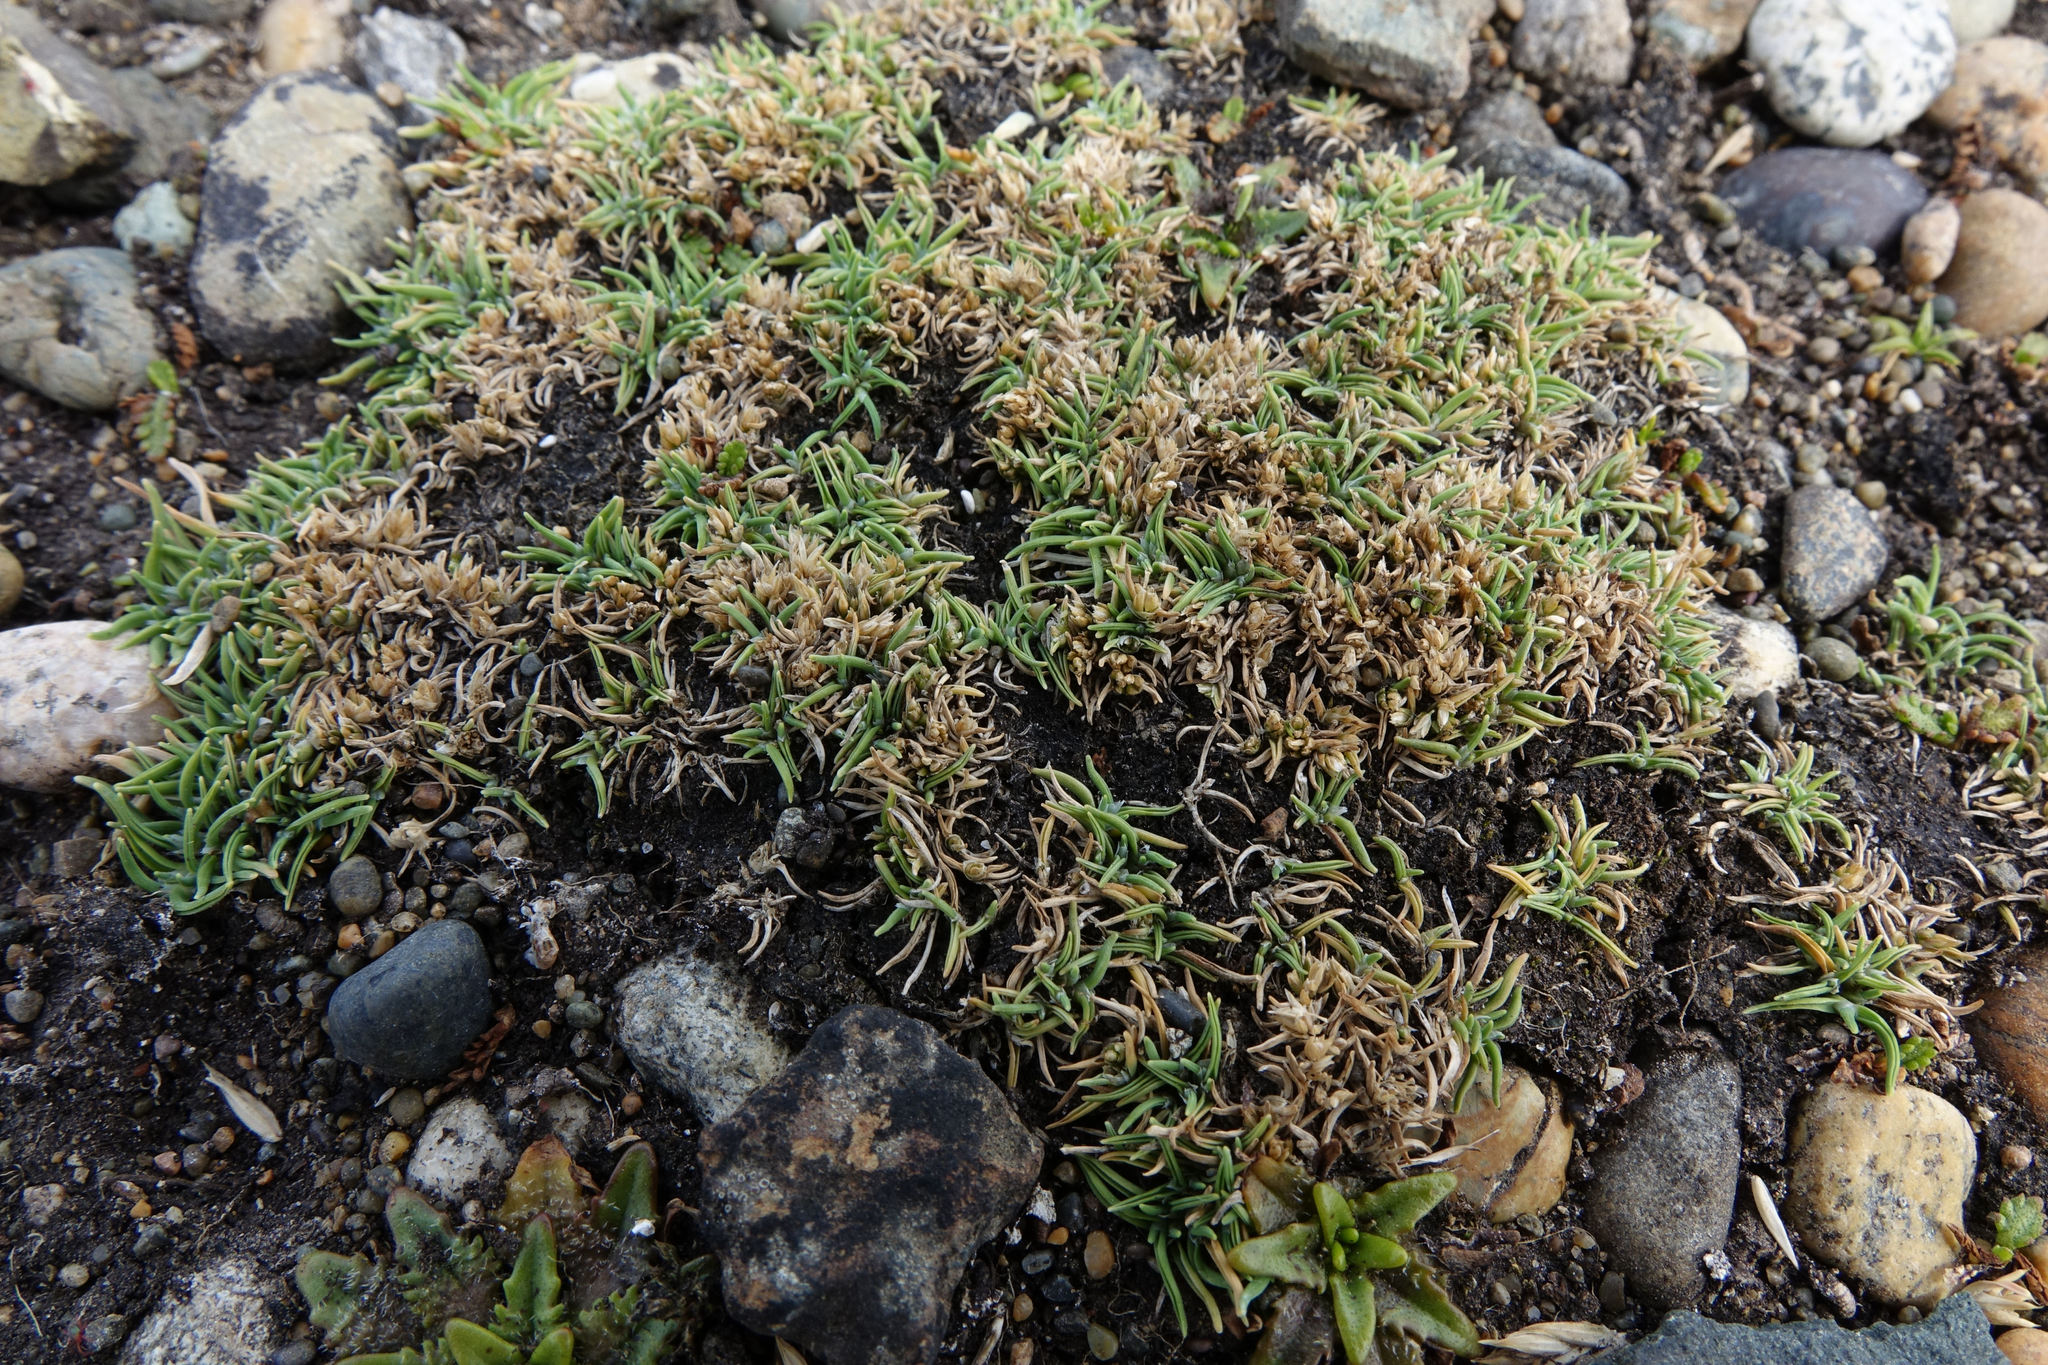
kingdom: Plantae
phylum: Tracheophyta
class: Liliopsida
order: Poales
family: Poaceae
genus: Agrostis
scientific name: Agrostis muscosa
